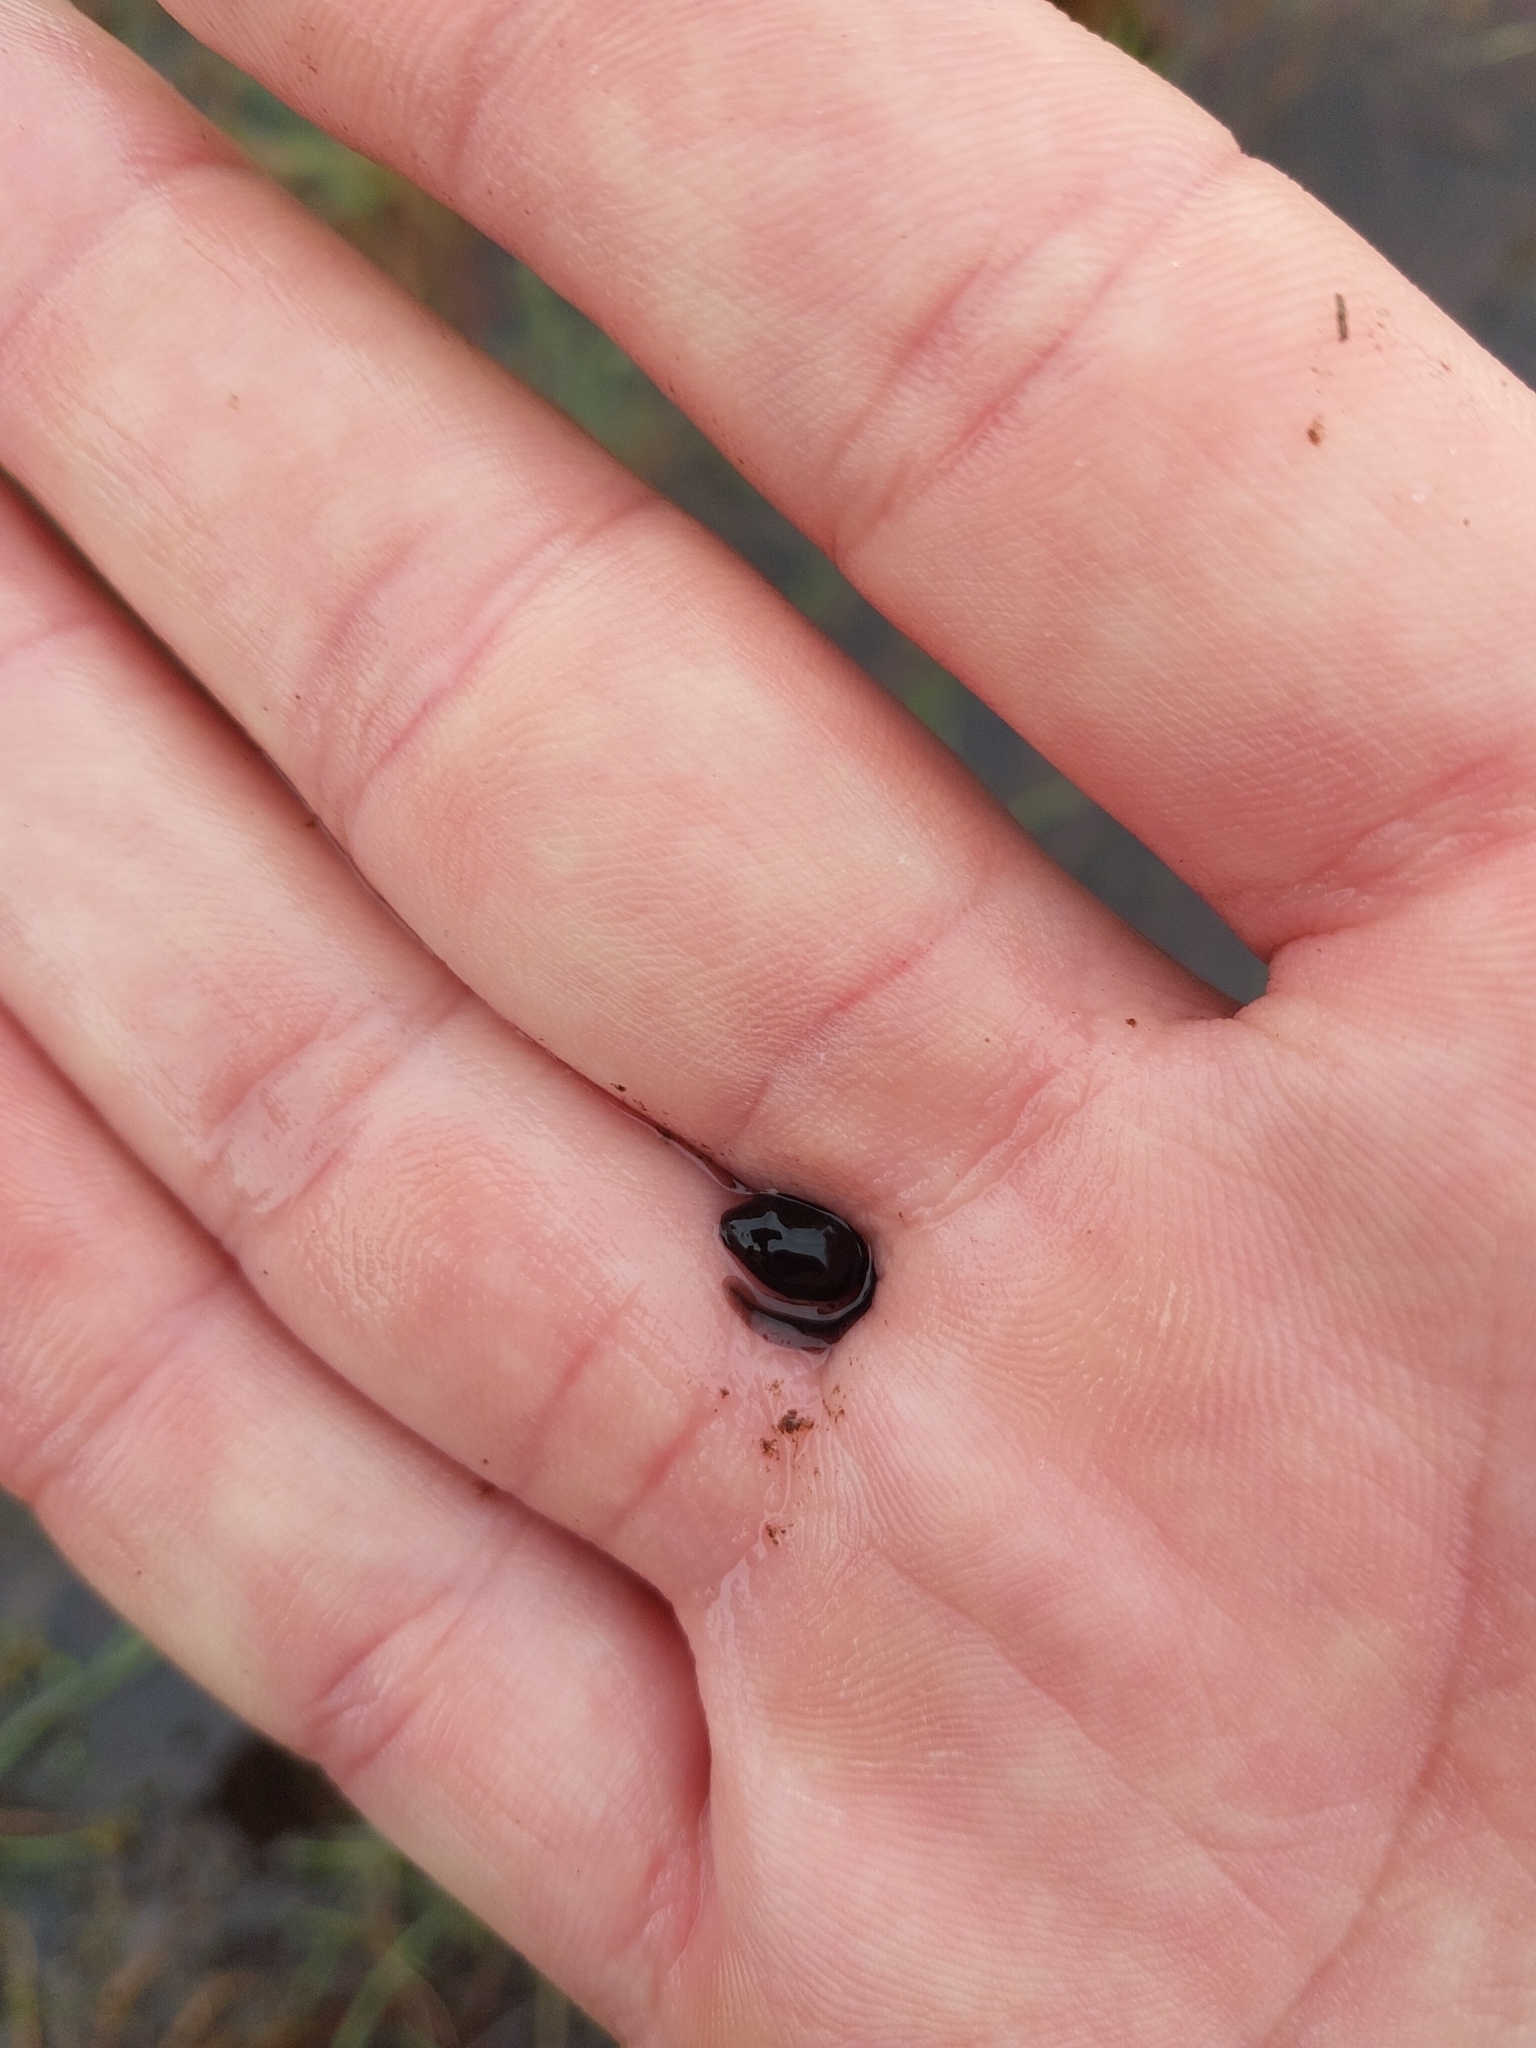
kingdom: Animalia
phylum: Chordata
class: Amphibia
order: Anura
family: Bufonidae
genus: Epidalea
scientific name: Epidalea calamita
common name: Natterjack toad
